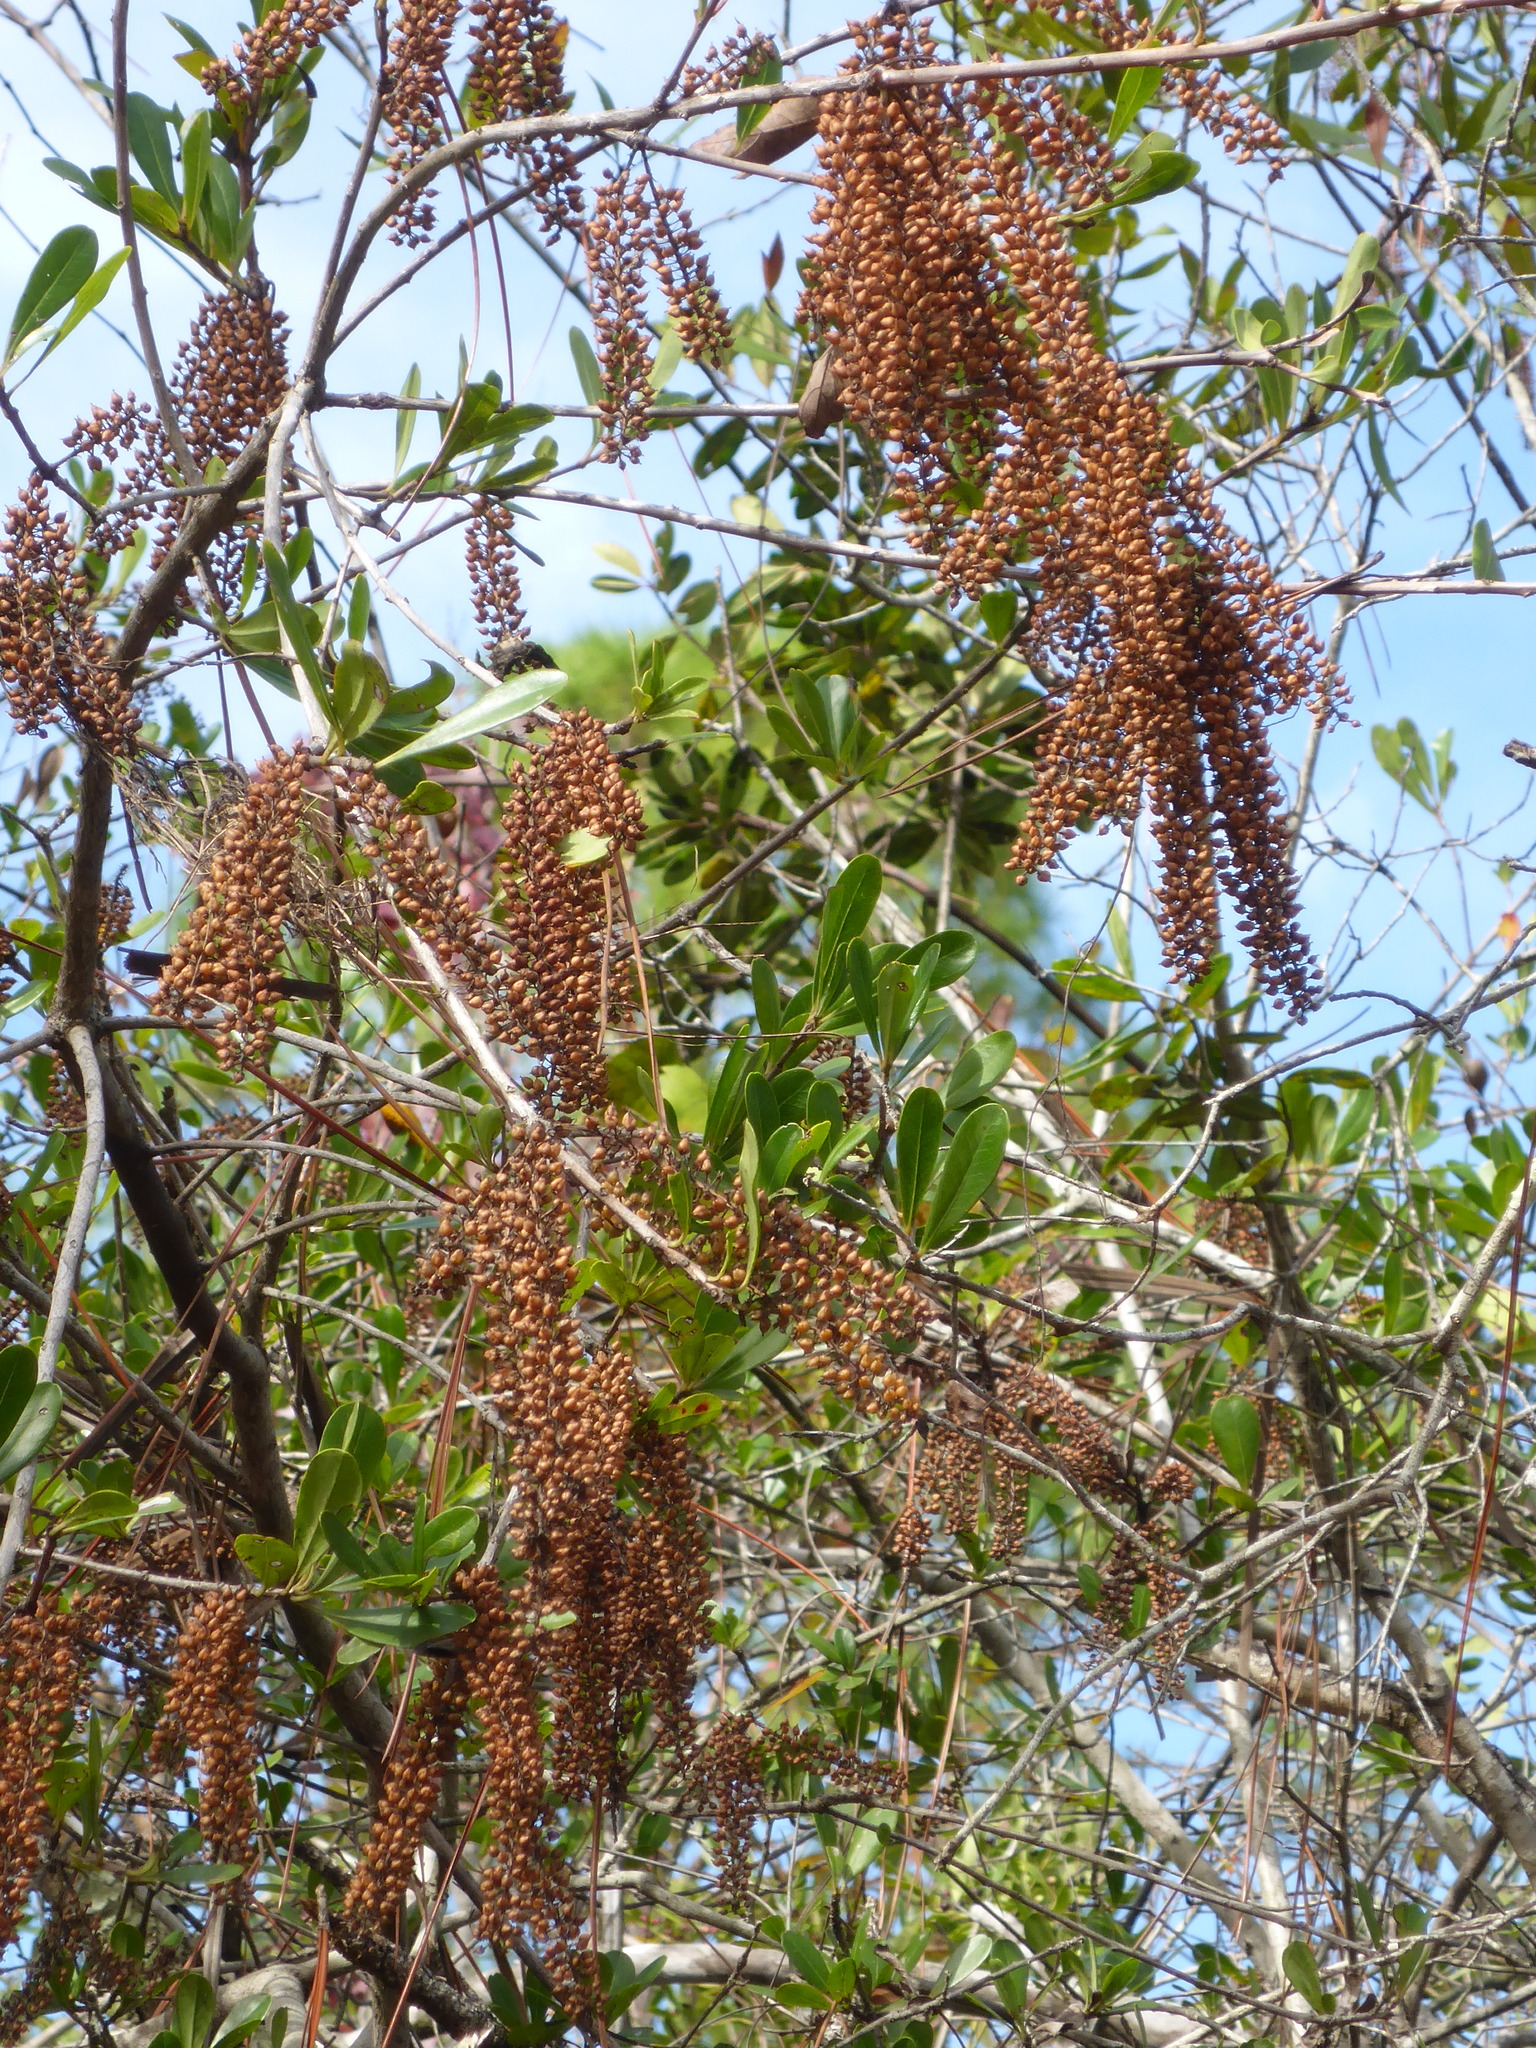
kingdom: Plantae
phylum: Tracheophyta
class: Magnoliopsida
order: Ericales
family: Cyrillaceae
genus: Cyrilla
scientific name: Cyrilla racemiflora
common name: Black titi
